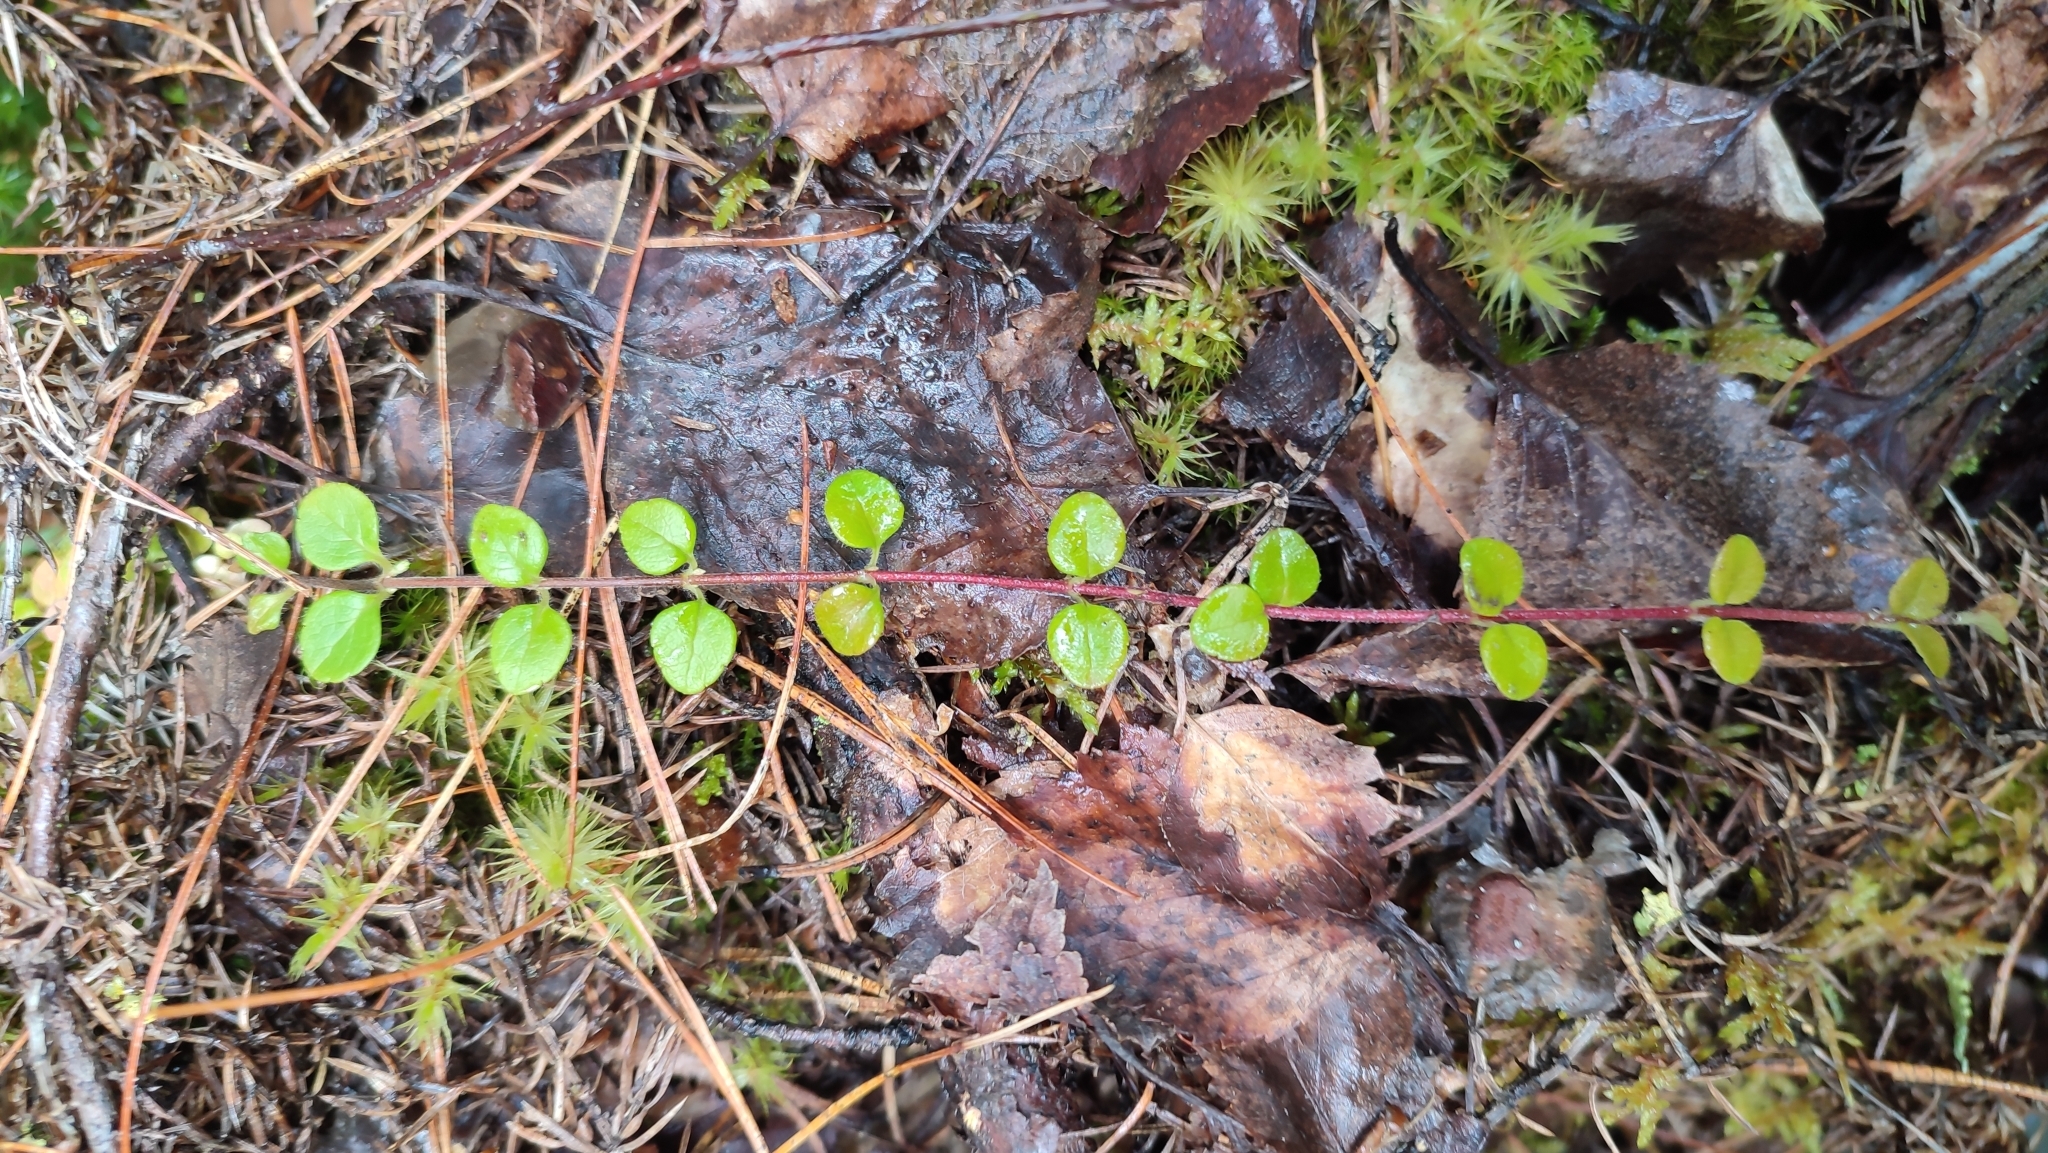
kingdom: Plantae
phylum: Tracheophyta
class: Magnoliopsida
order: Dipsacales
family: Caprifoliaceae
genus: Linnaea
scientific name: Linnaea borealis
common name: Twinflower
